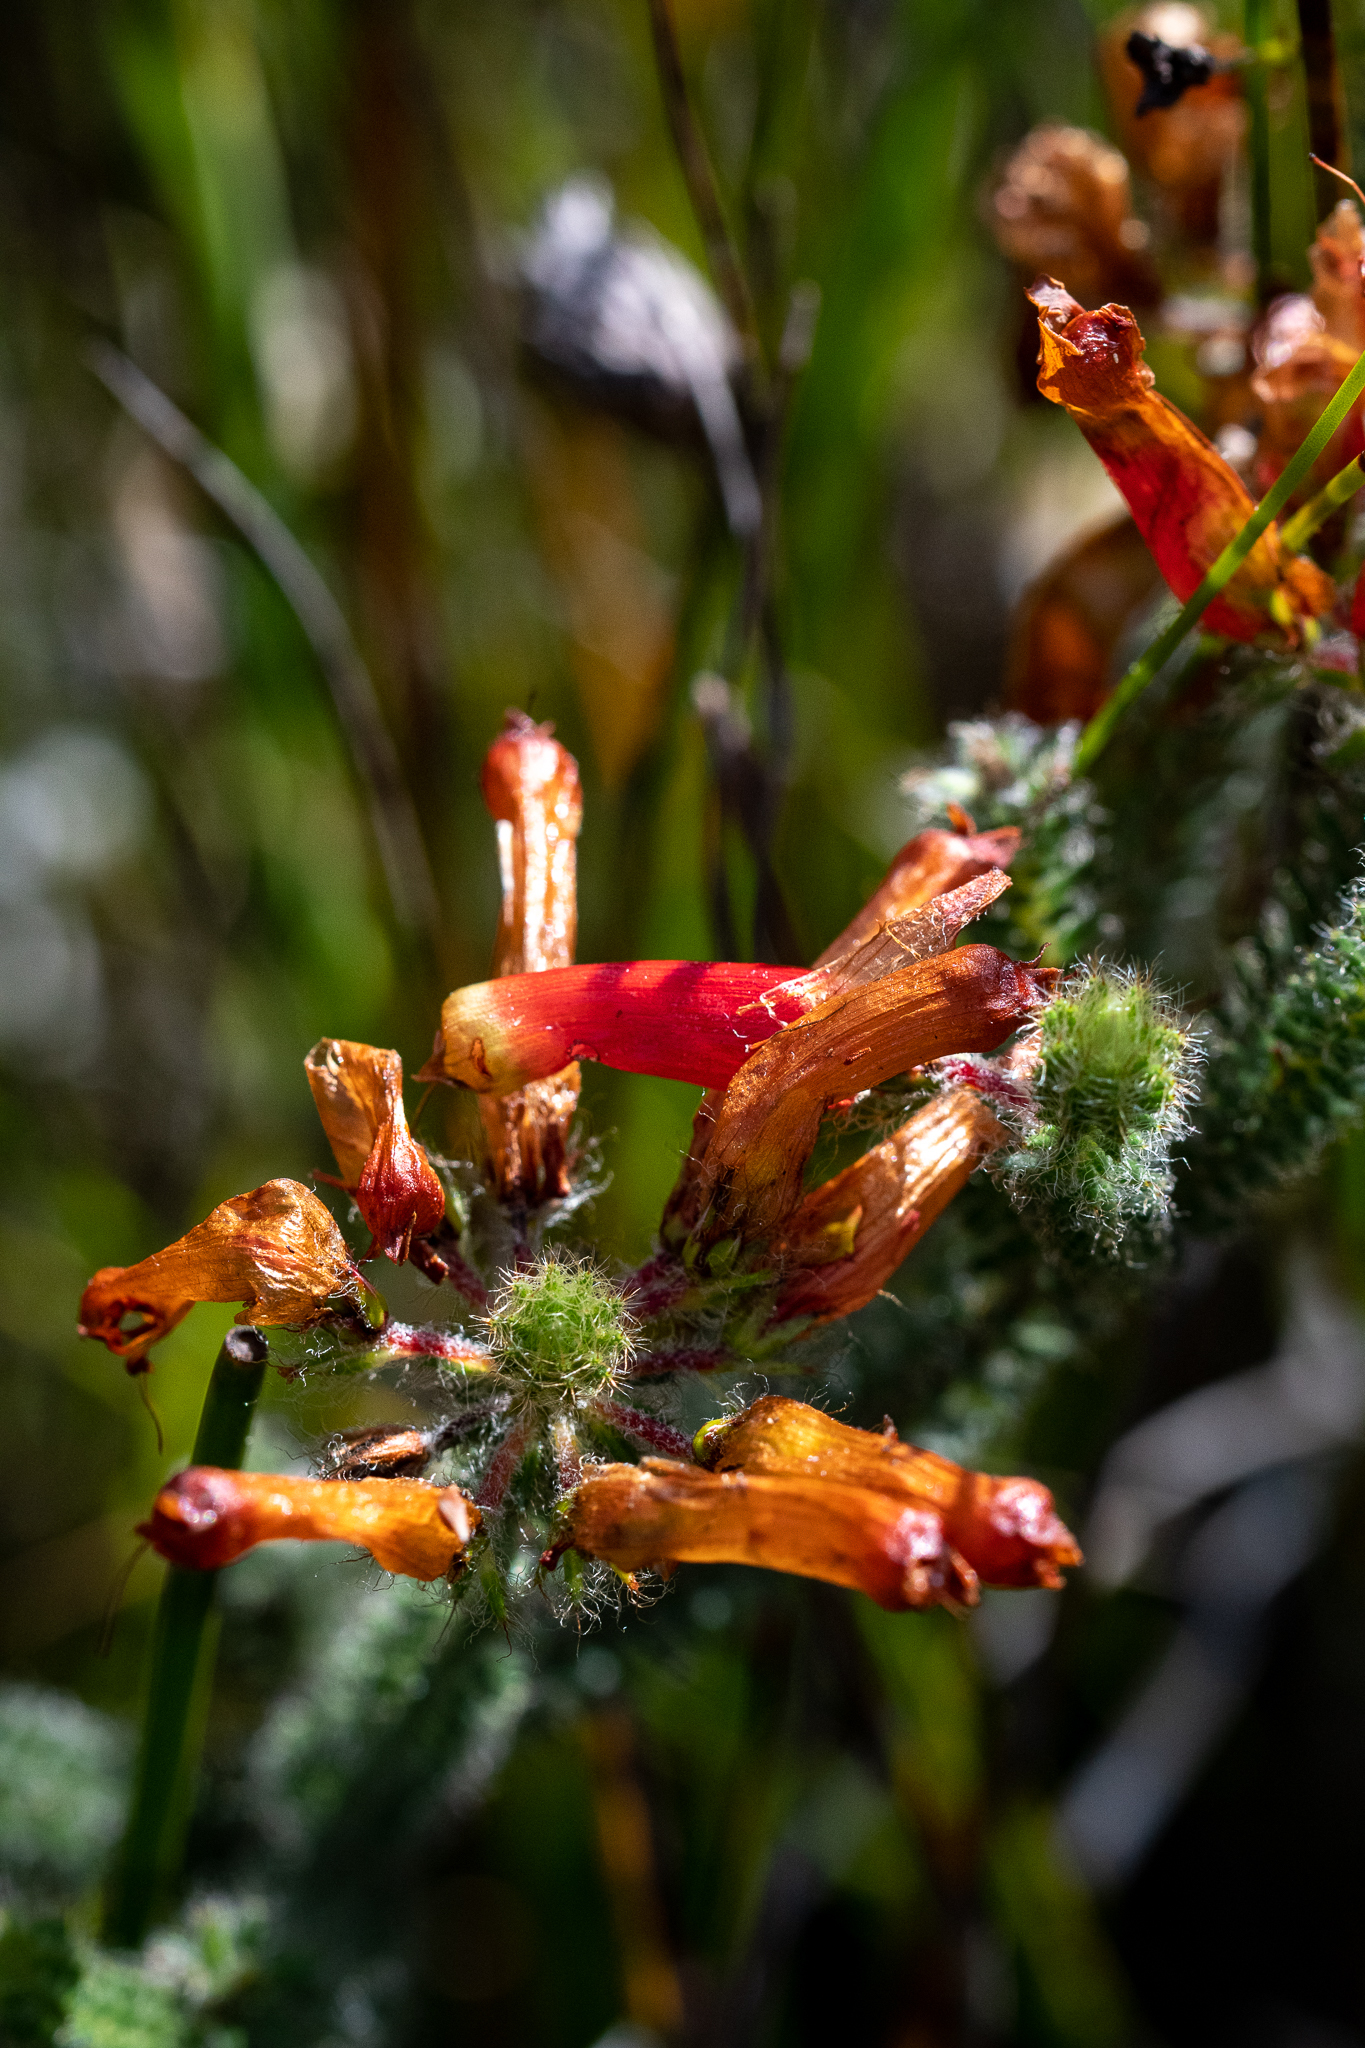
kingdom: Plantae
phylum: Tracheophyta
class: Magnoliopsida
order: Ericales
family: Ericaceae
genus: Erica
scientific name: Erica massonii
